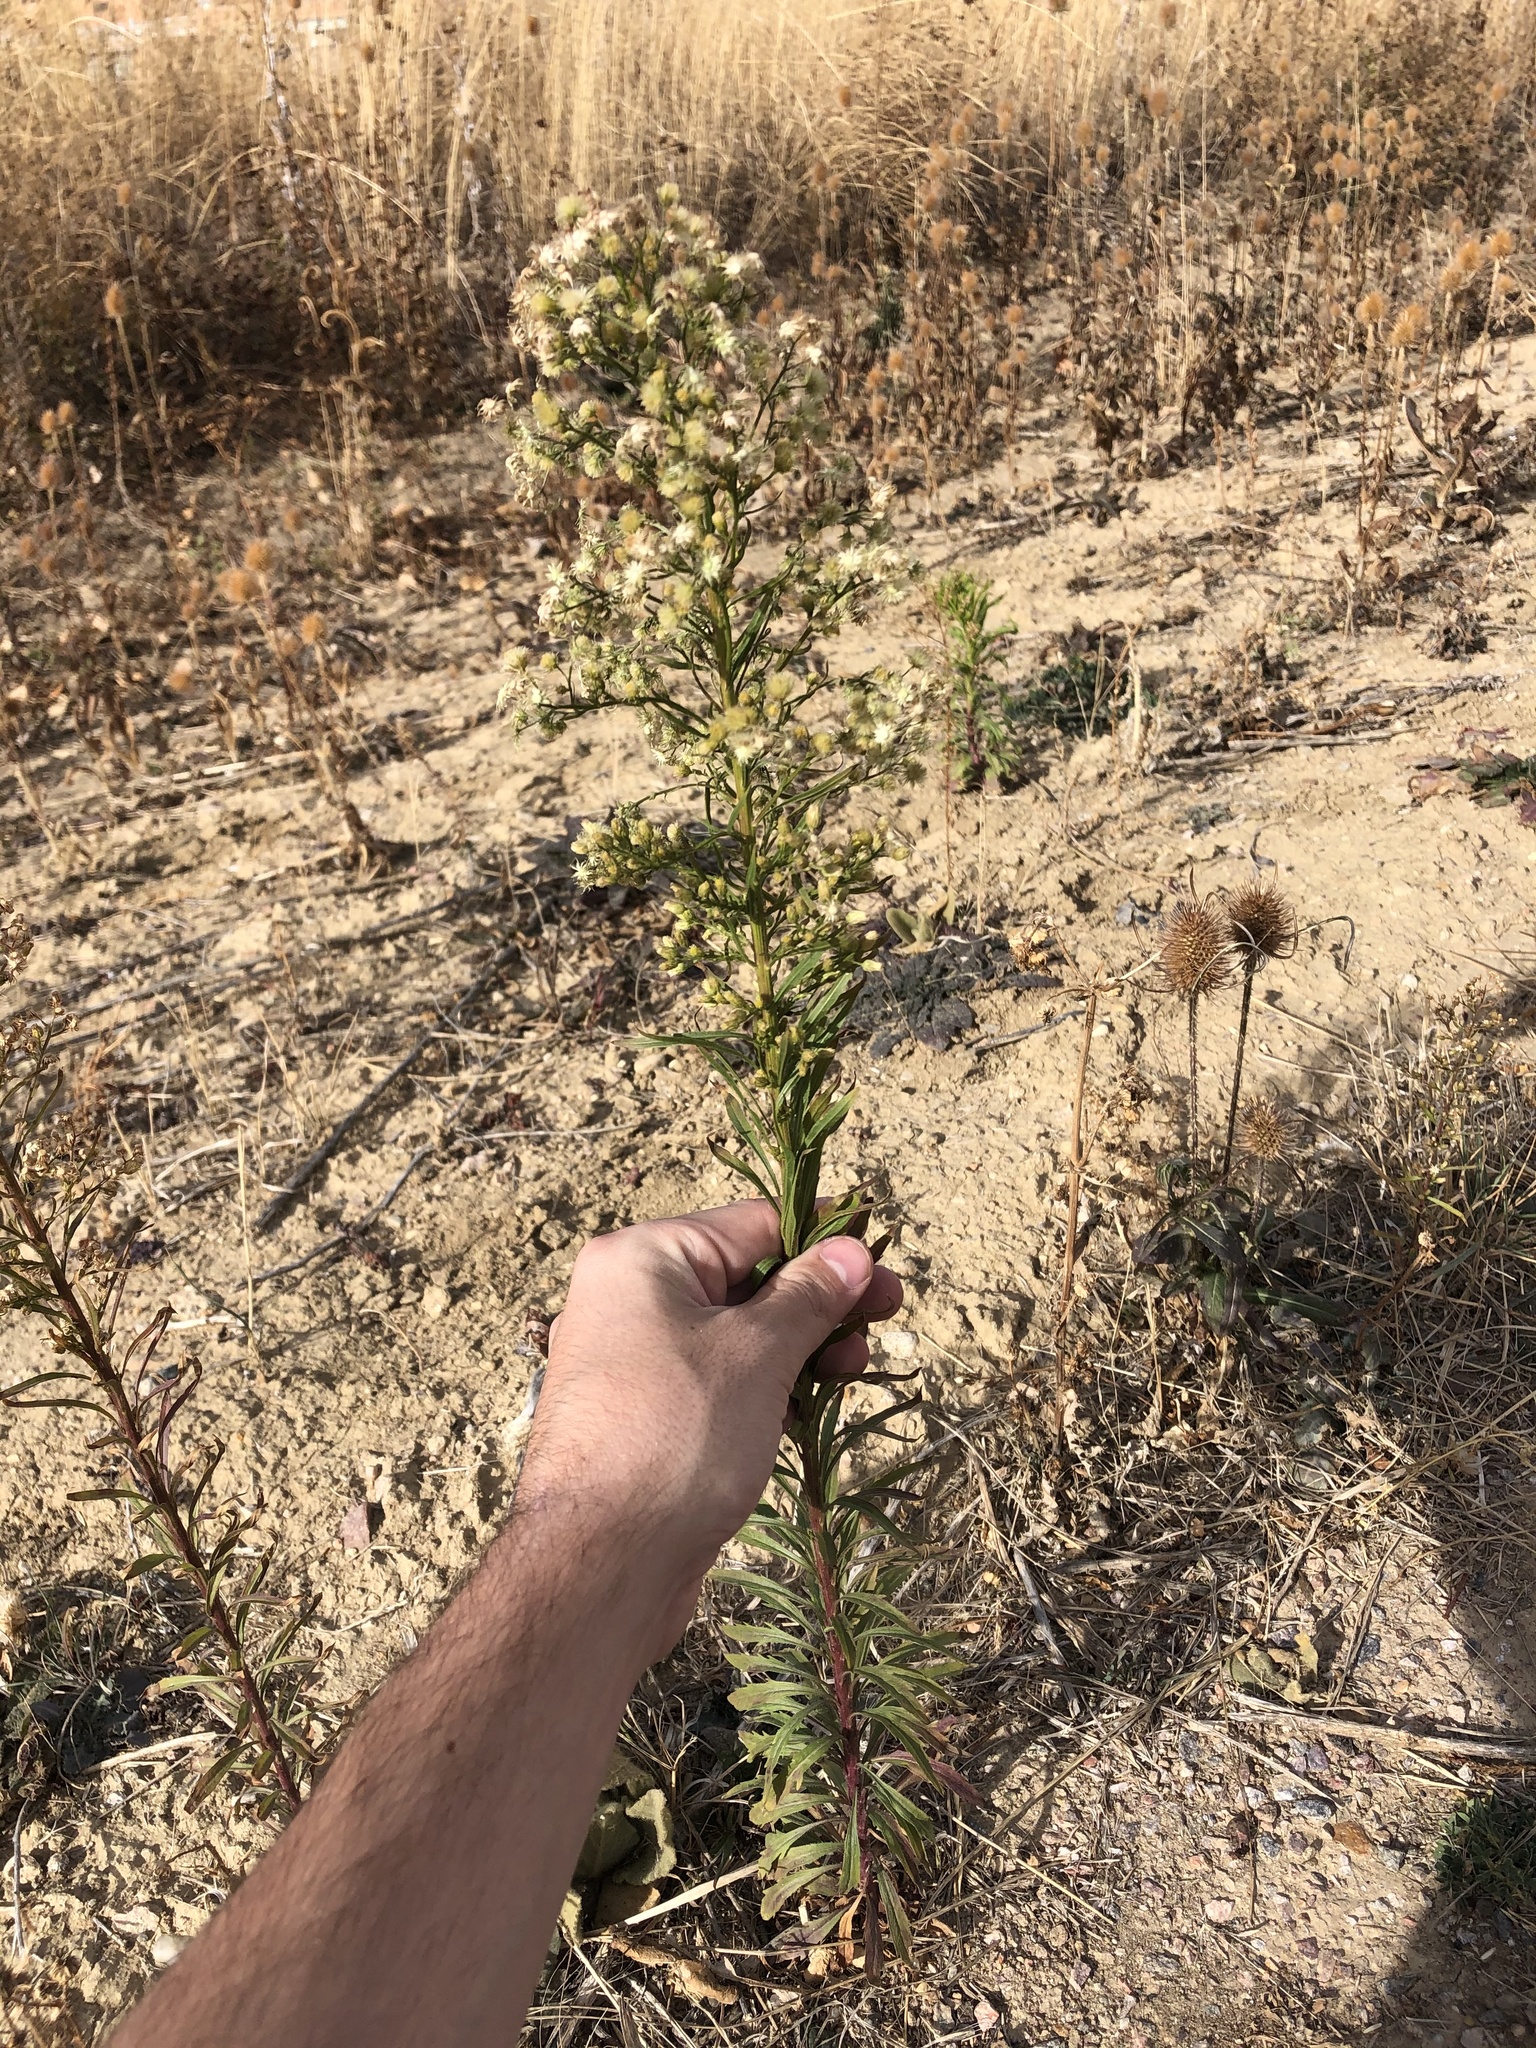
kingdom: Plantae
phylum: Tracheophyta
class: Magnoliopsida
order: Asterales
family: Asteraceae
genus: Erigeron
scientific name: Erigeron canadensis
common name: Canadian fleabane
